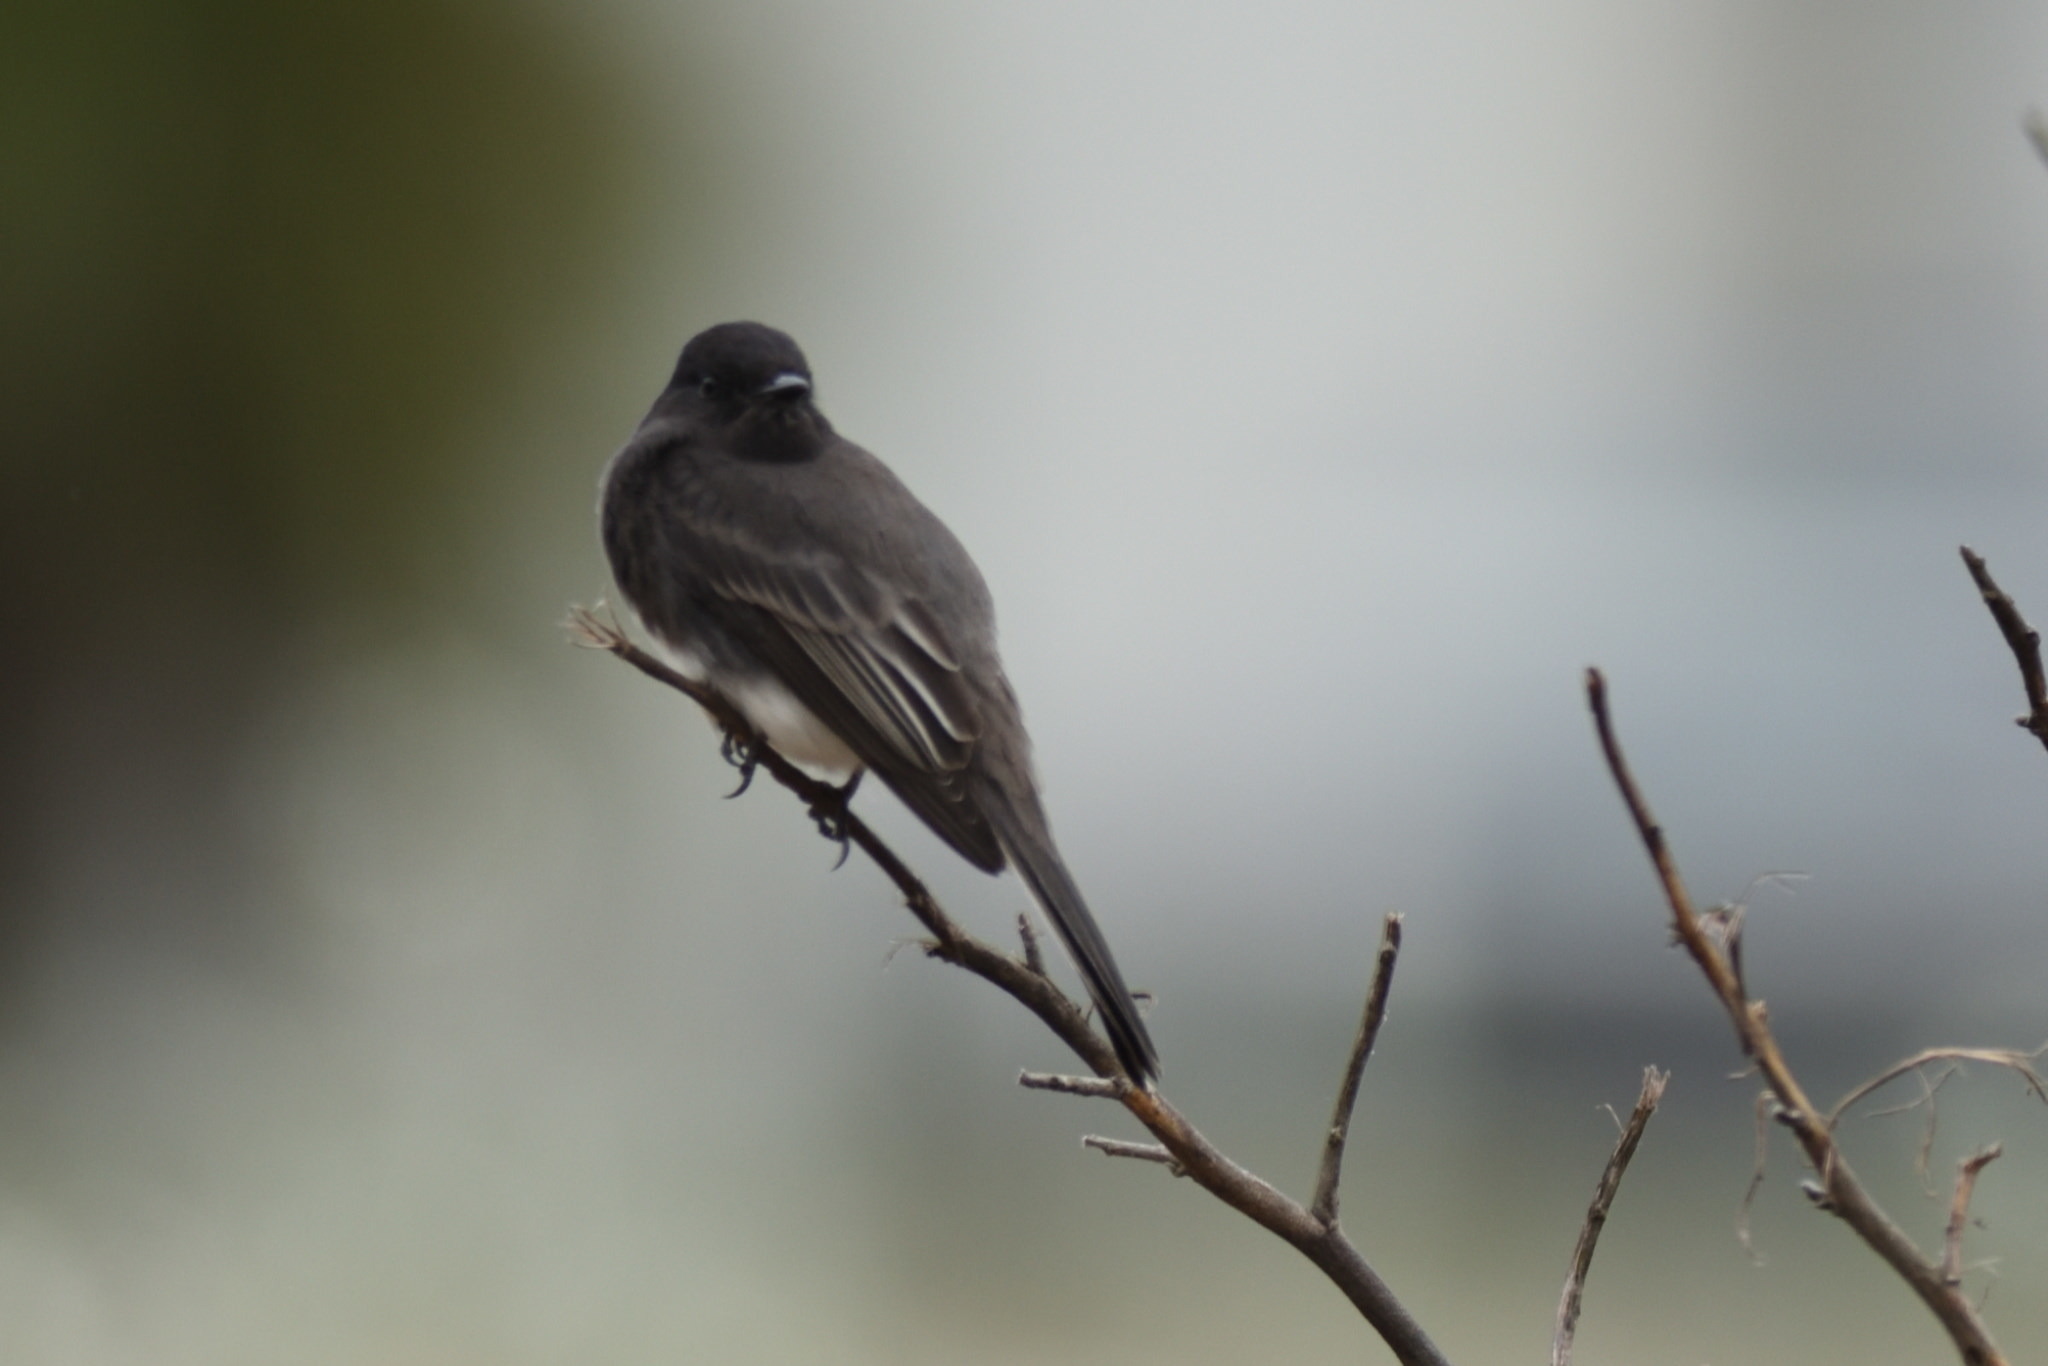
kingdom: Animalia
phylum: Chordata
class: Aves
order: Passeriformes
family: Tyrannidae
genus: Sayornis
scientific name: Sayornis nigricans
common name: Black phoebe
